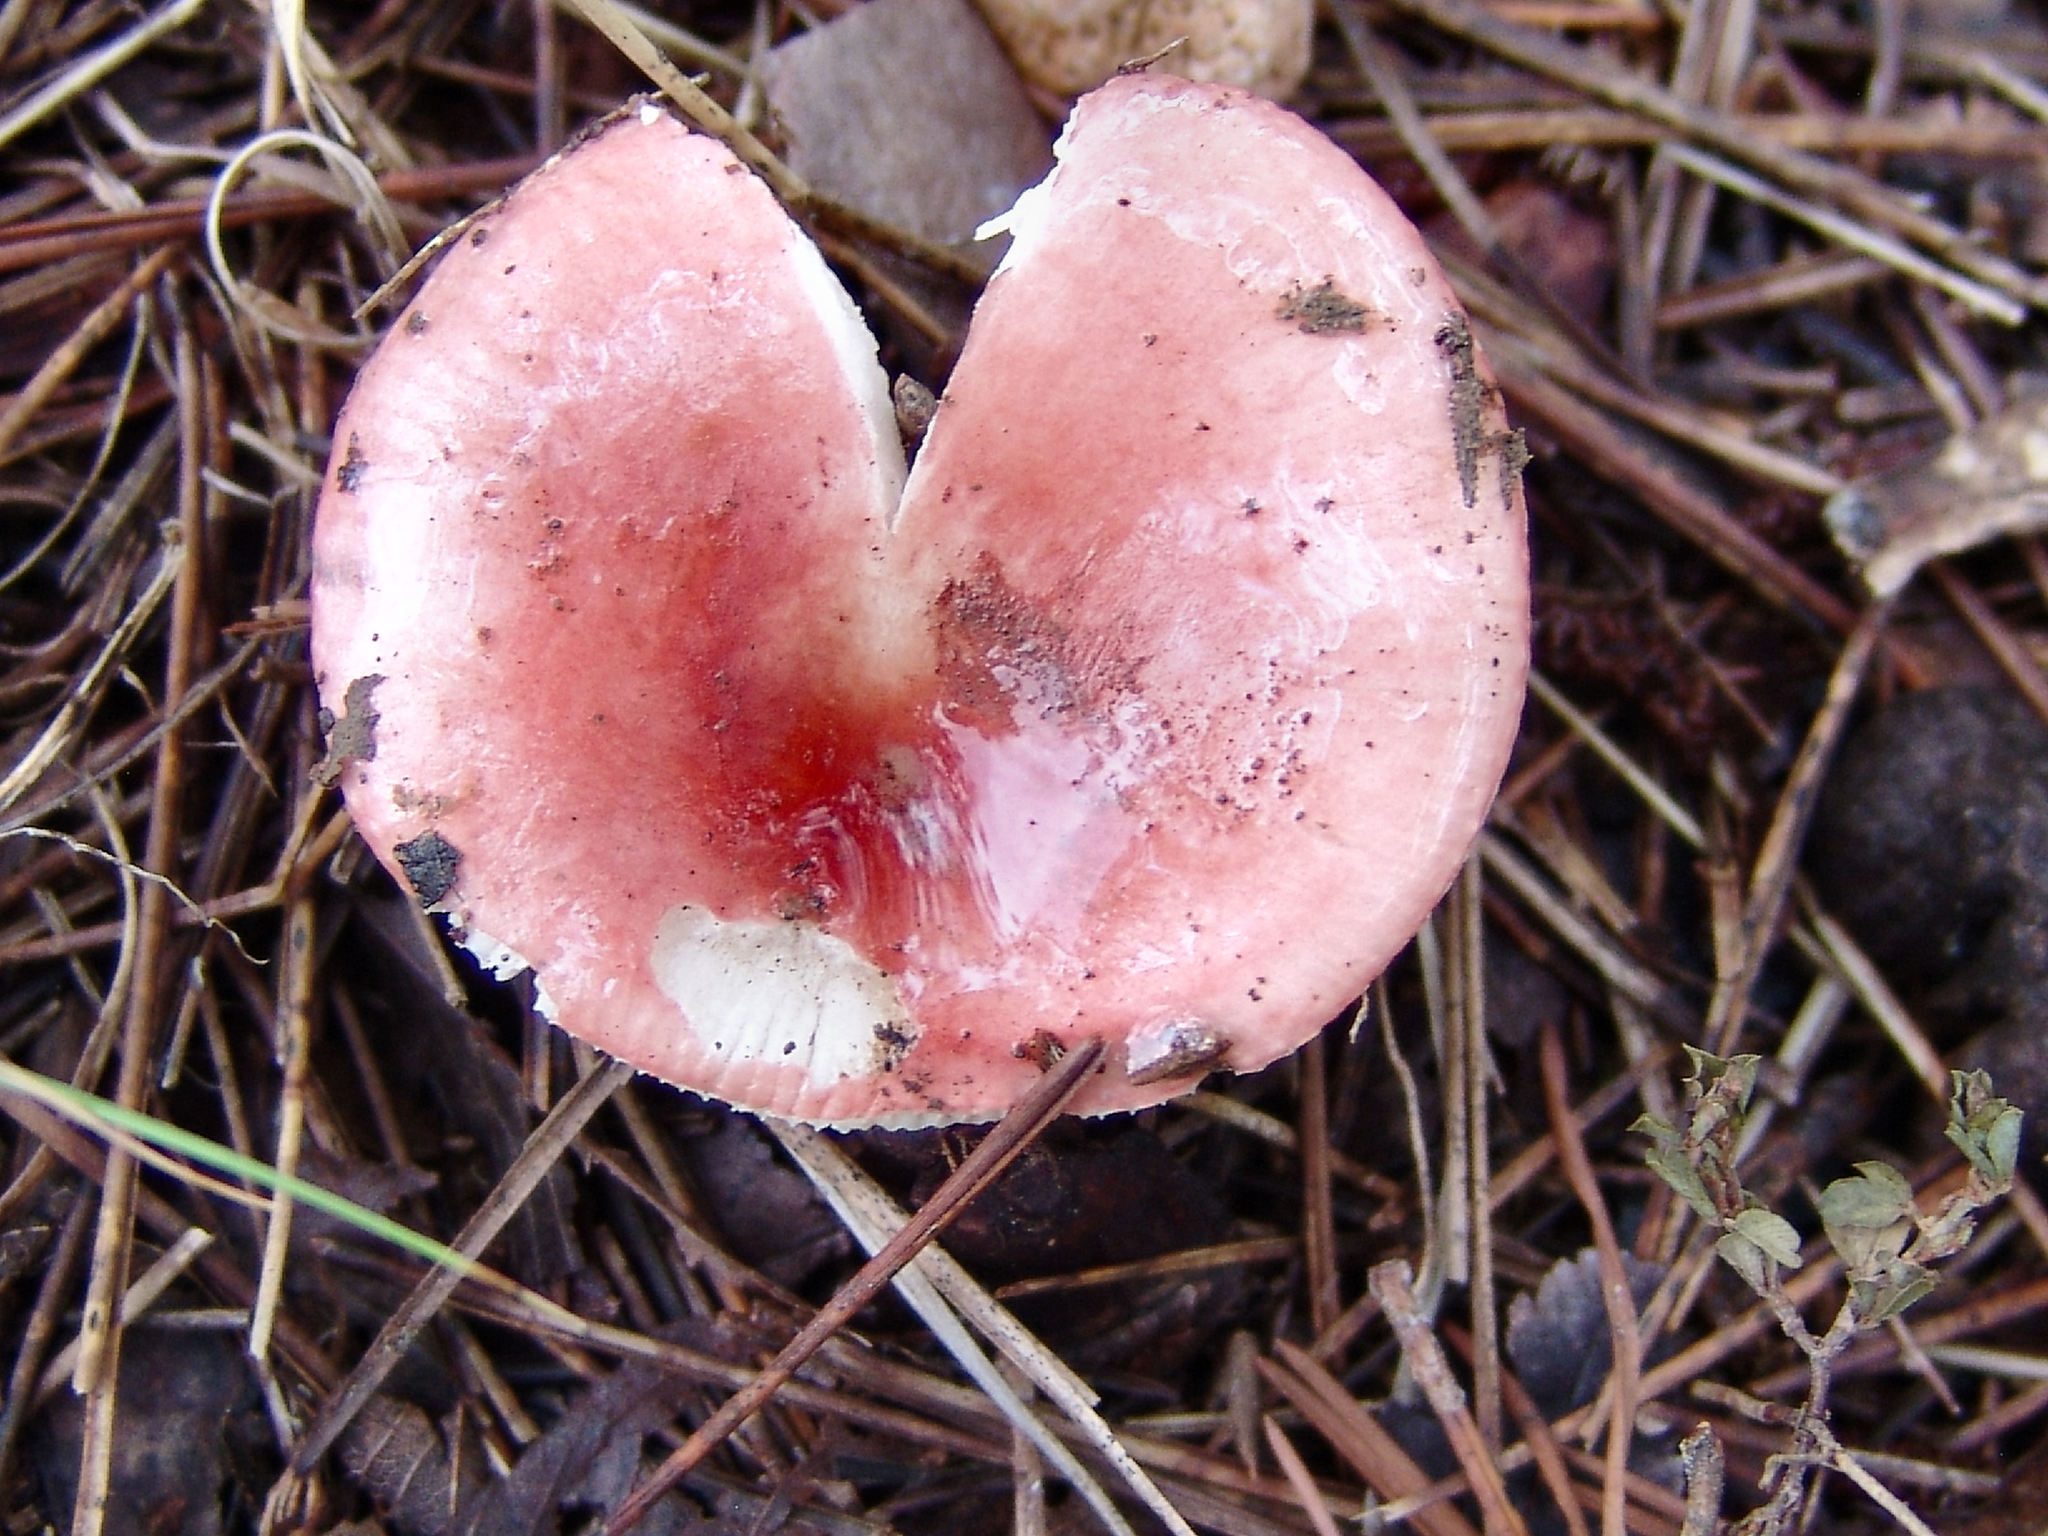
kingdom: Fungi
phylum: Basidiomycota
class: Agaricomycetes
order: Russulales
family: Russulaceae
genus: Russula
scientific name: Russula
